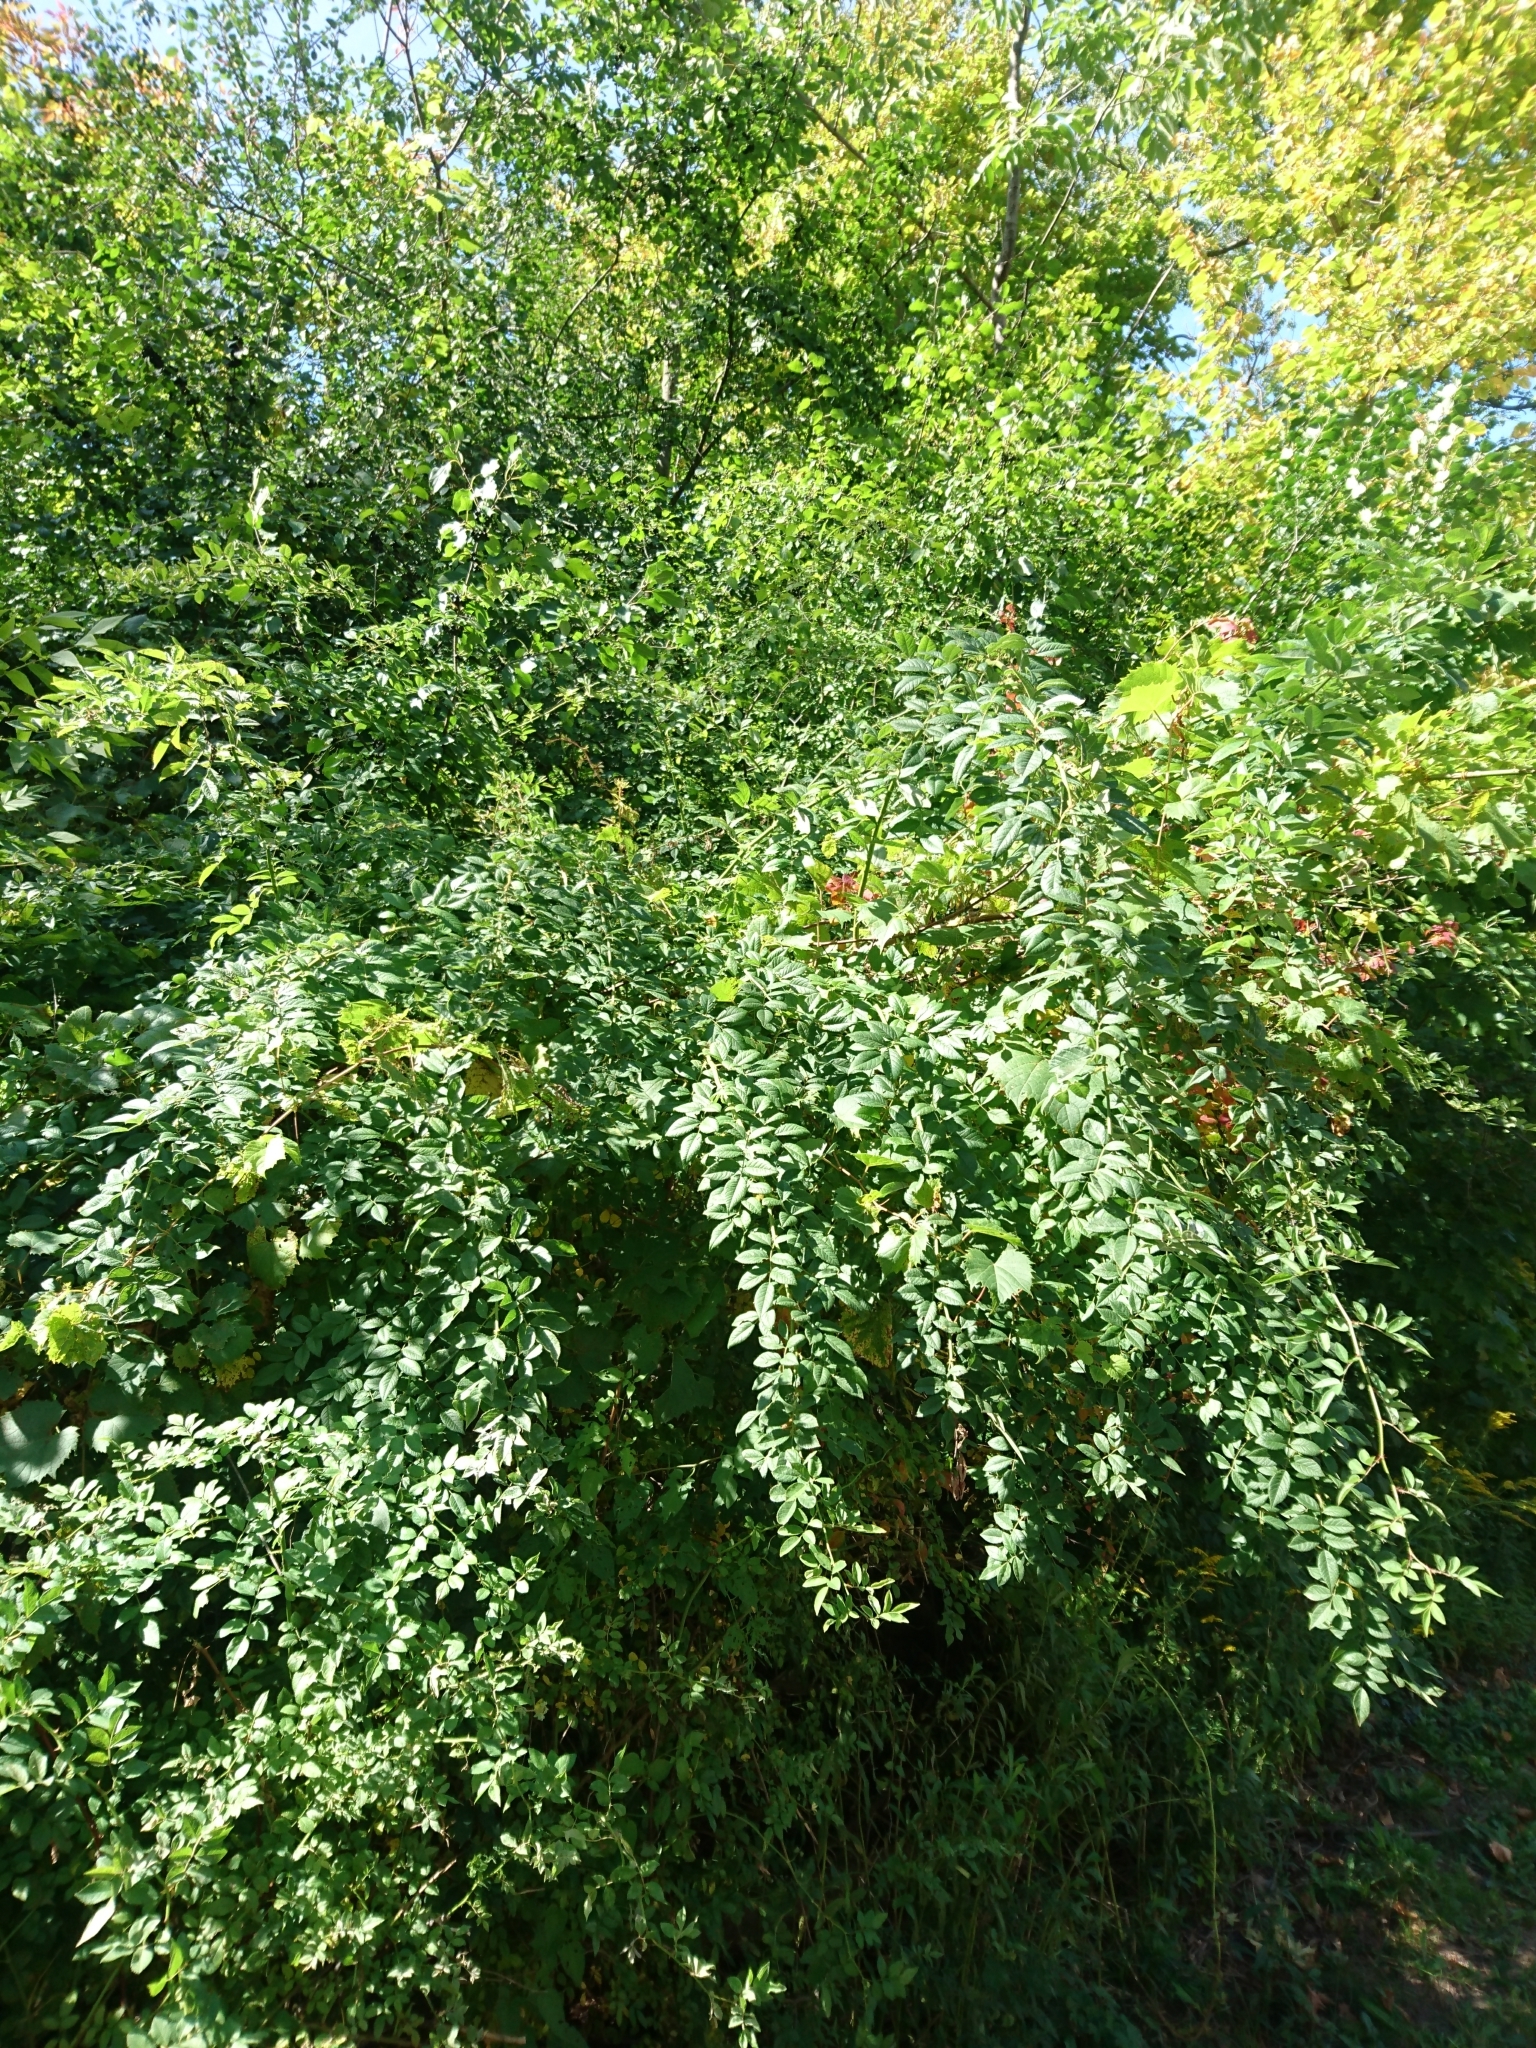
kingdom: Plantae
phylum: Tracheophyta
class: Magnoliopsida
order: Rosales
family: Rosaceae
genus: Rosa
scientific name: Rosa multiflora
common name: Multiflora rose
